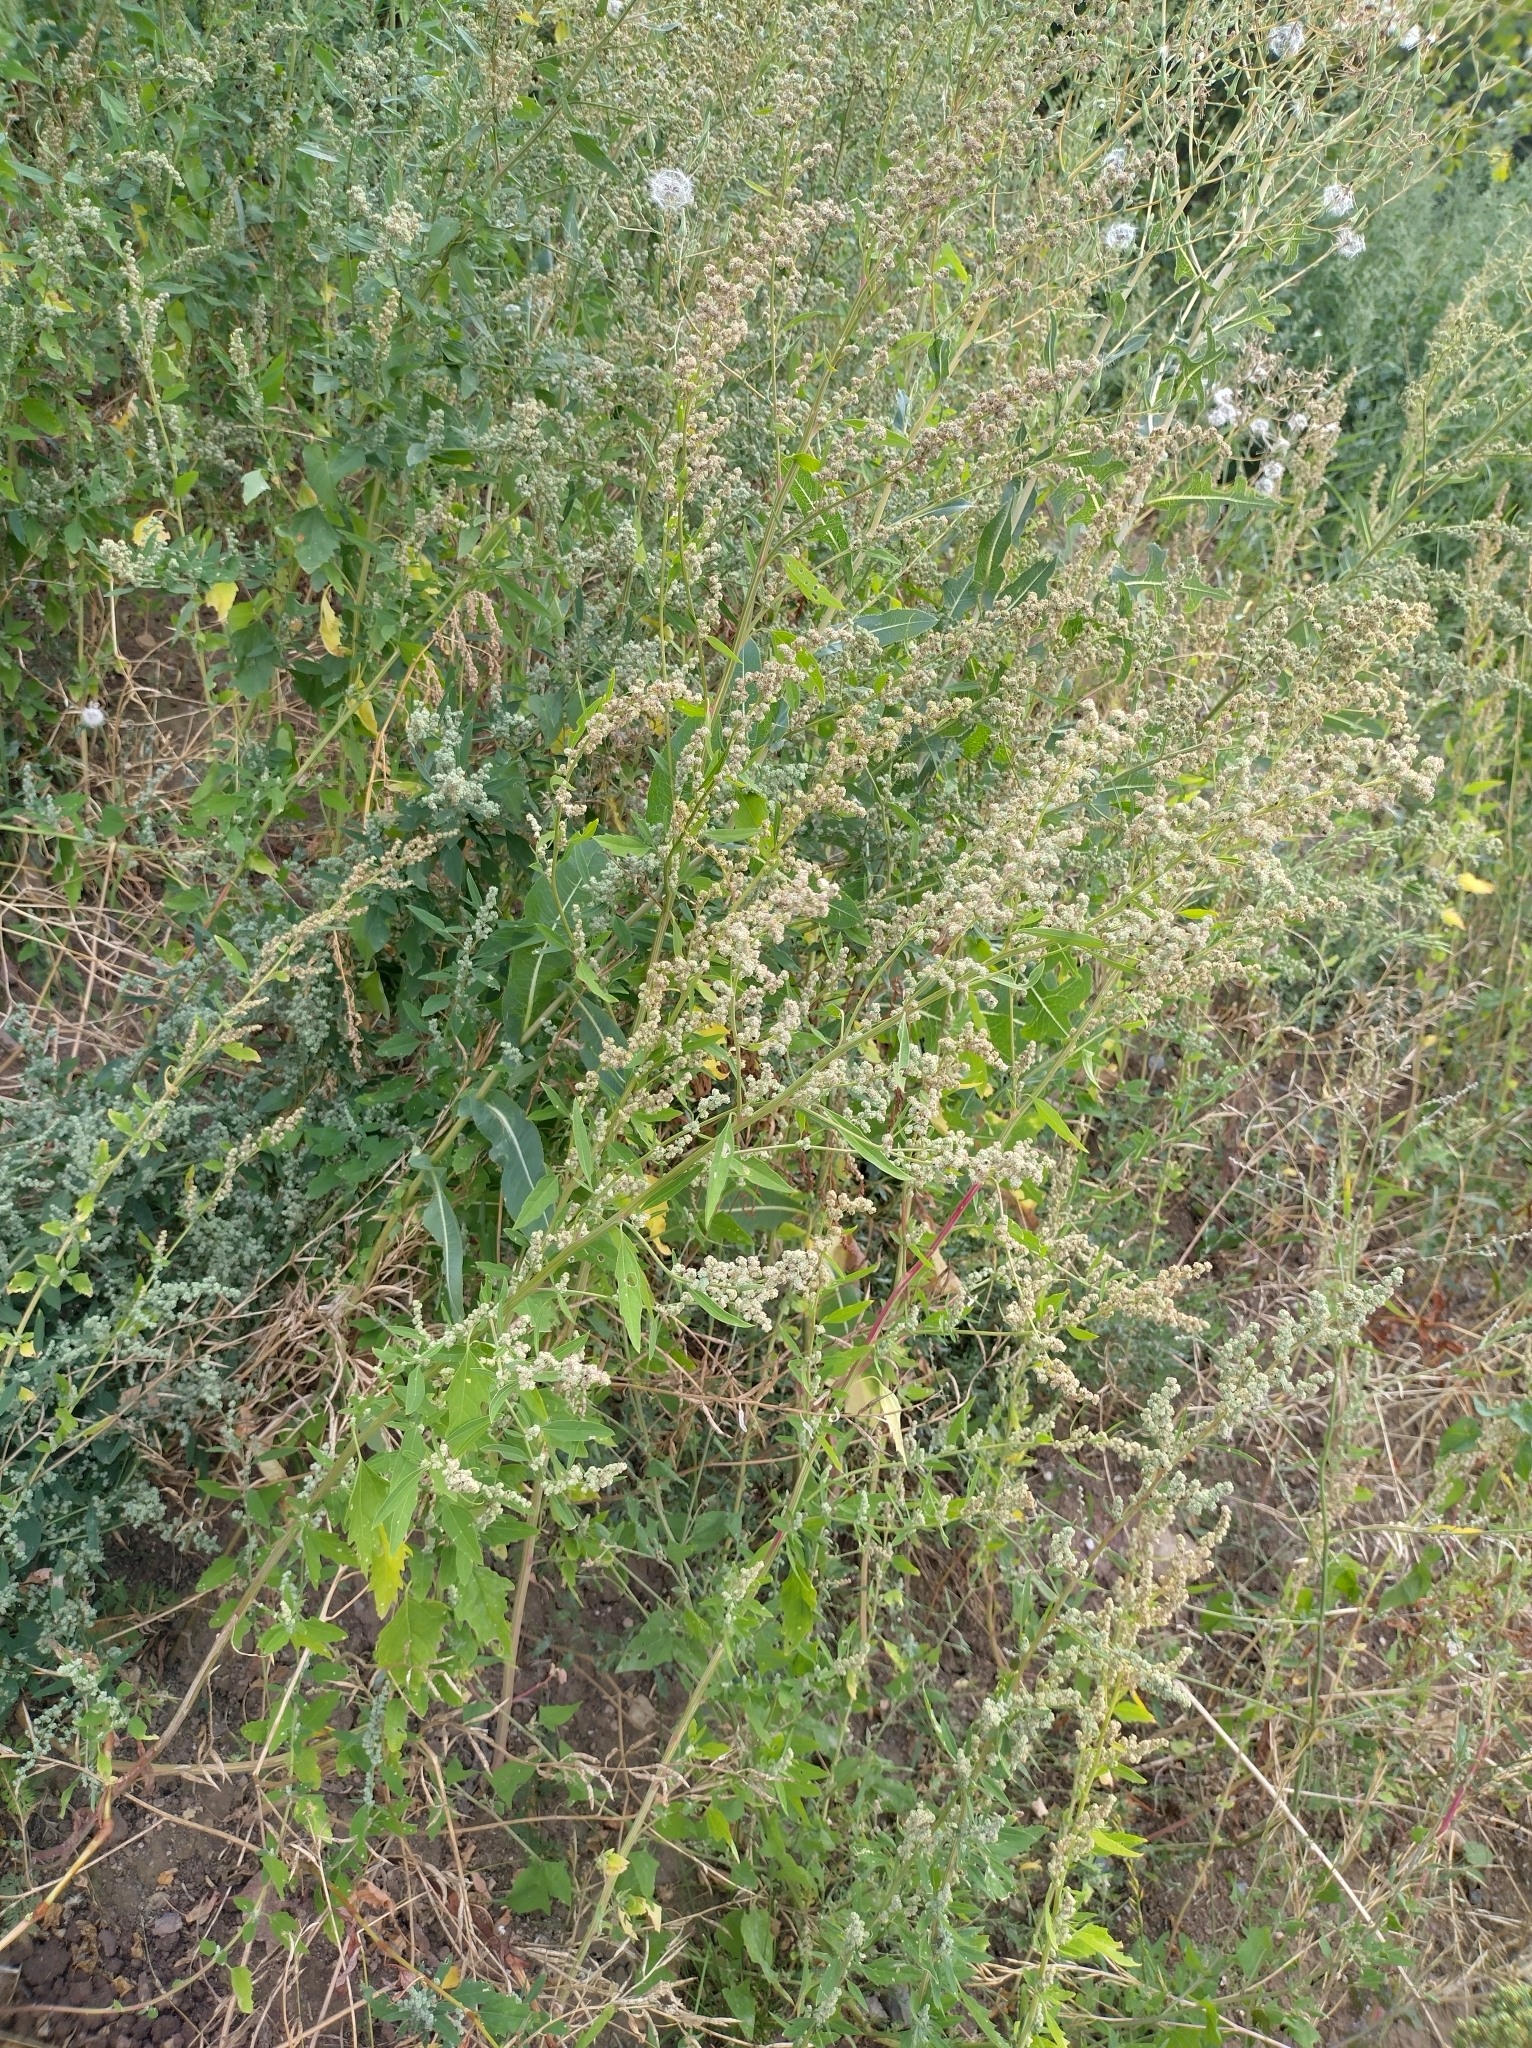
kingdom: Plantae
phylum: Tracheophyta
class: Magnoliopsida
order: Caryophyllales
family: Amaranthaceae
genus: Chenopodium
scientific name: Chenopodium album
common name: Fat-hen
